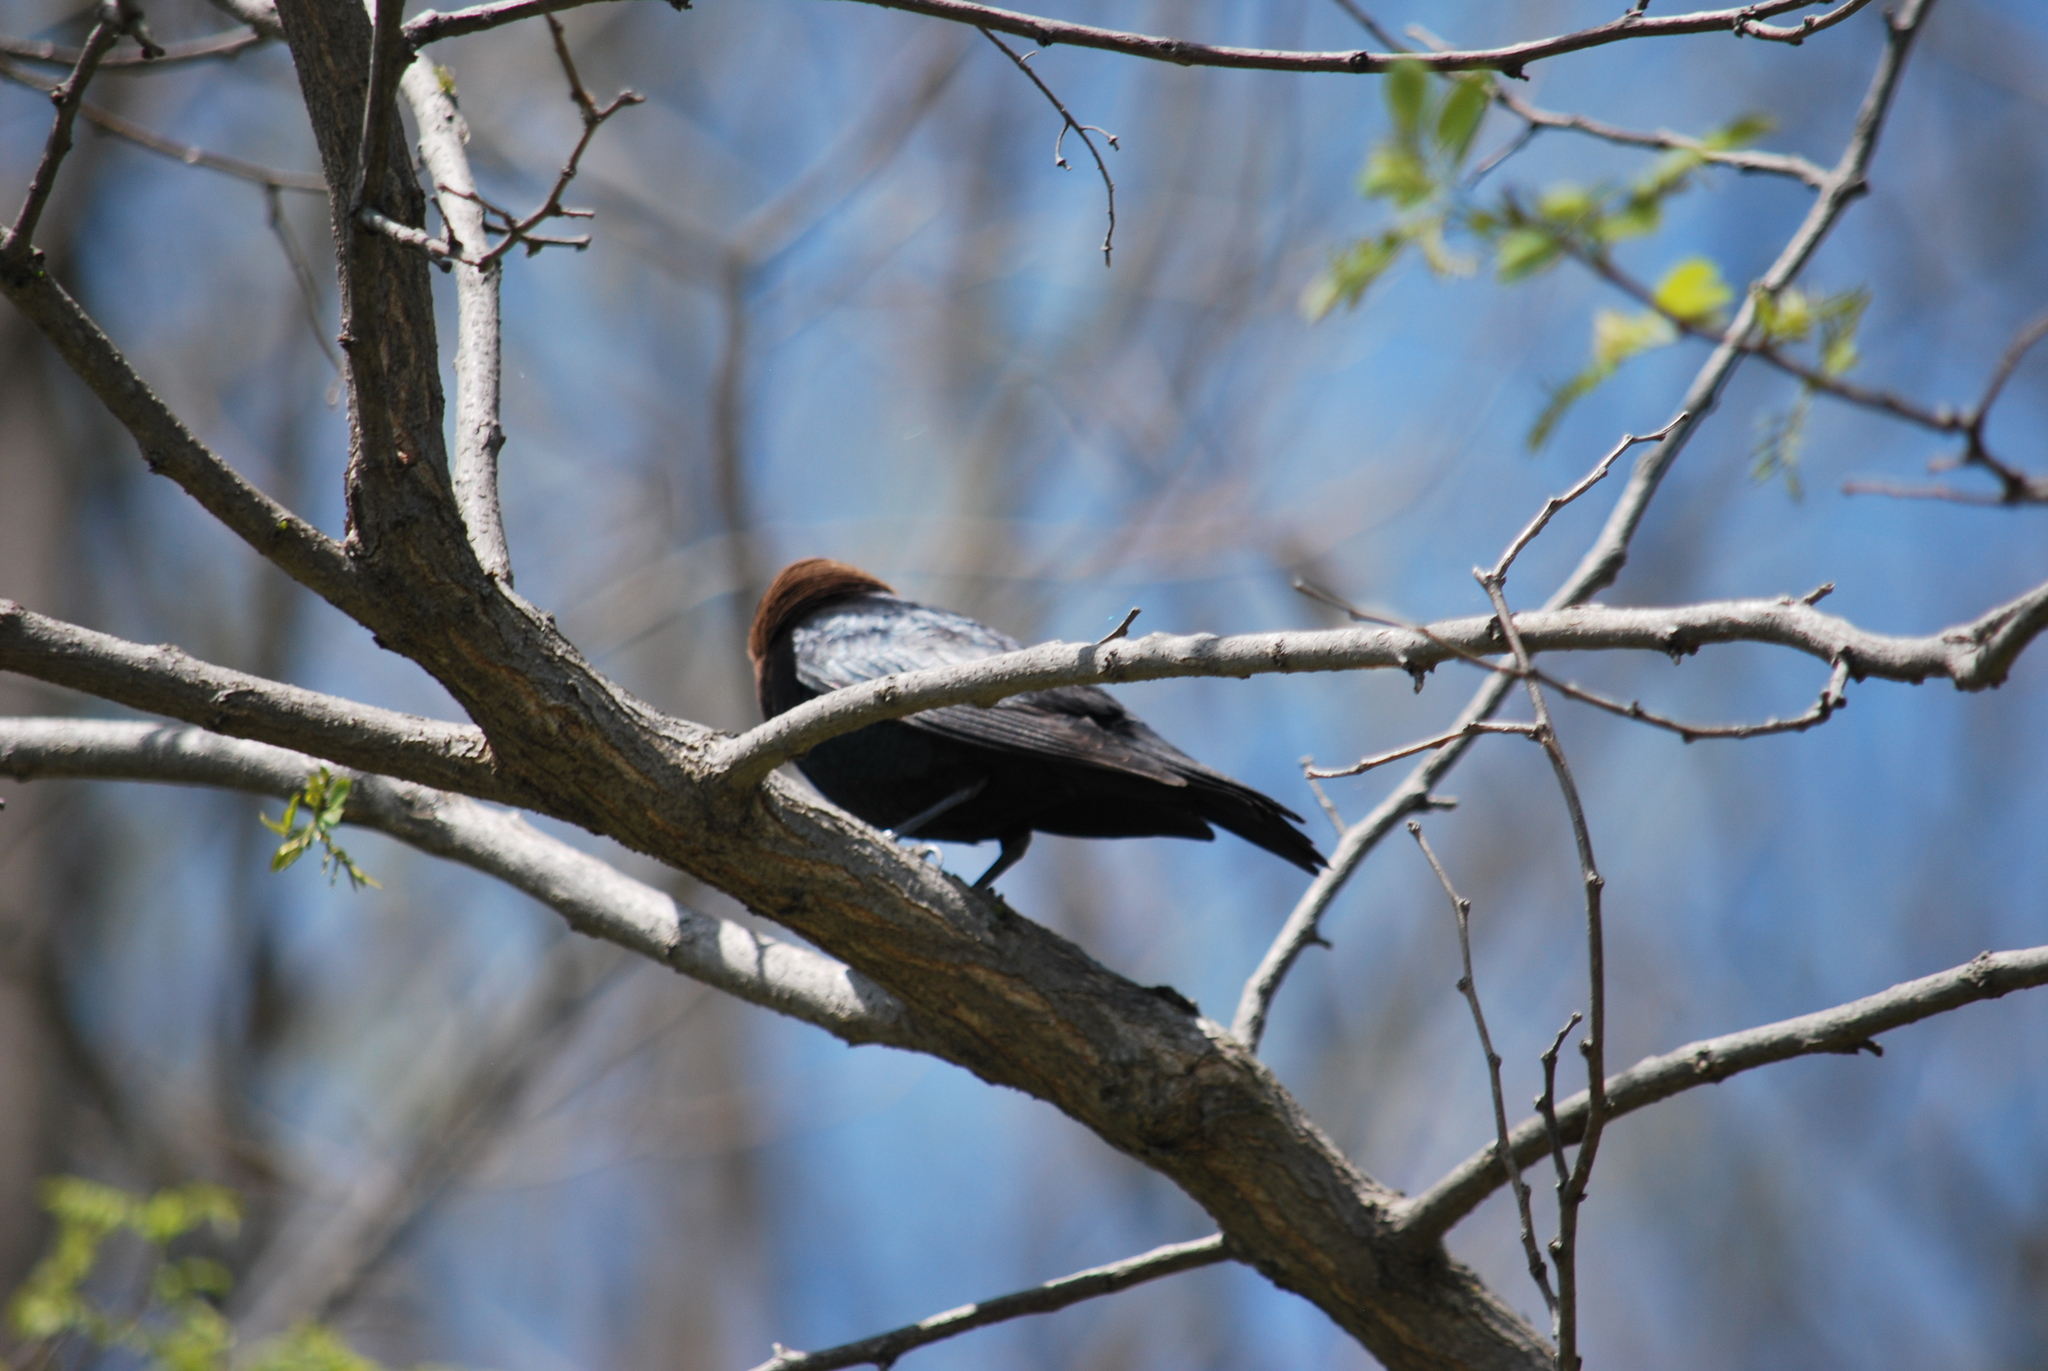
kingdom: Animalia
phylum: Chordata
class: Aves
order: Passeriformes
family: Icteridae
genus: Molothrus
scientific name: Molothrus ater
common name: Brown-headed cowbird
